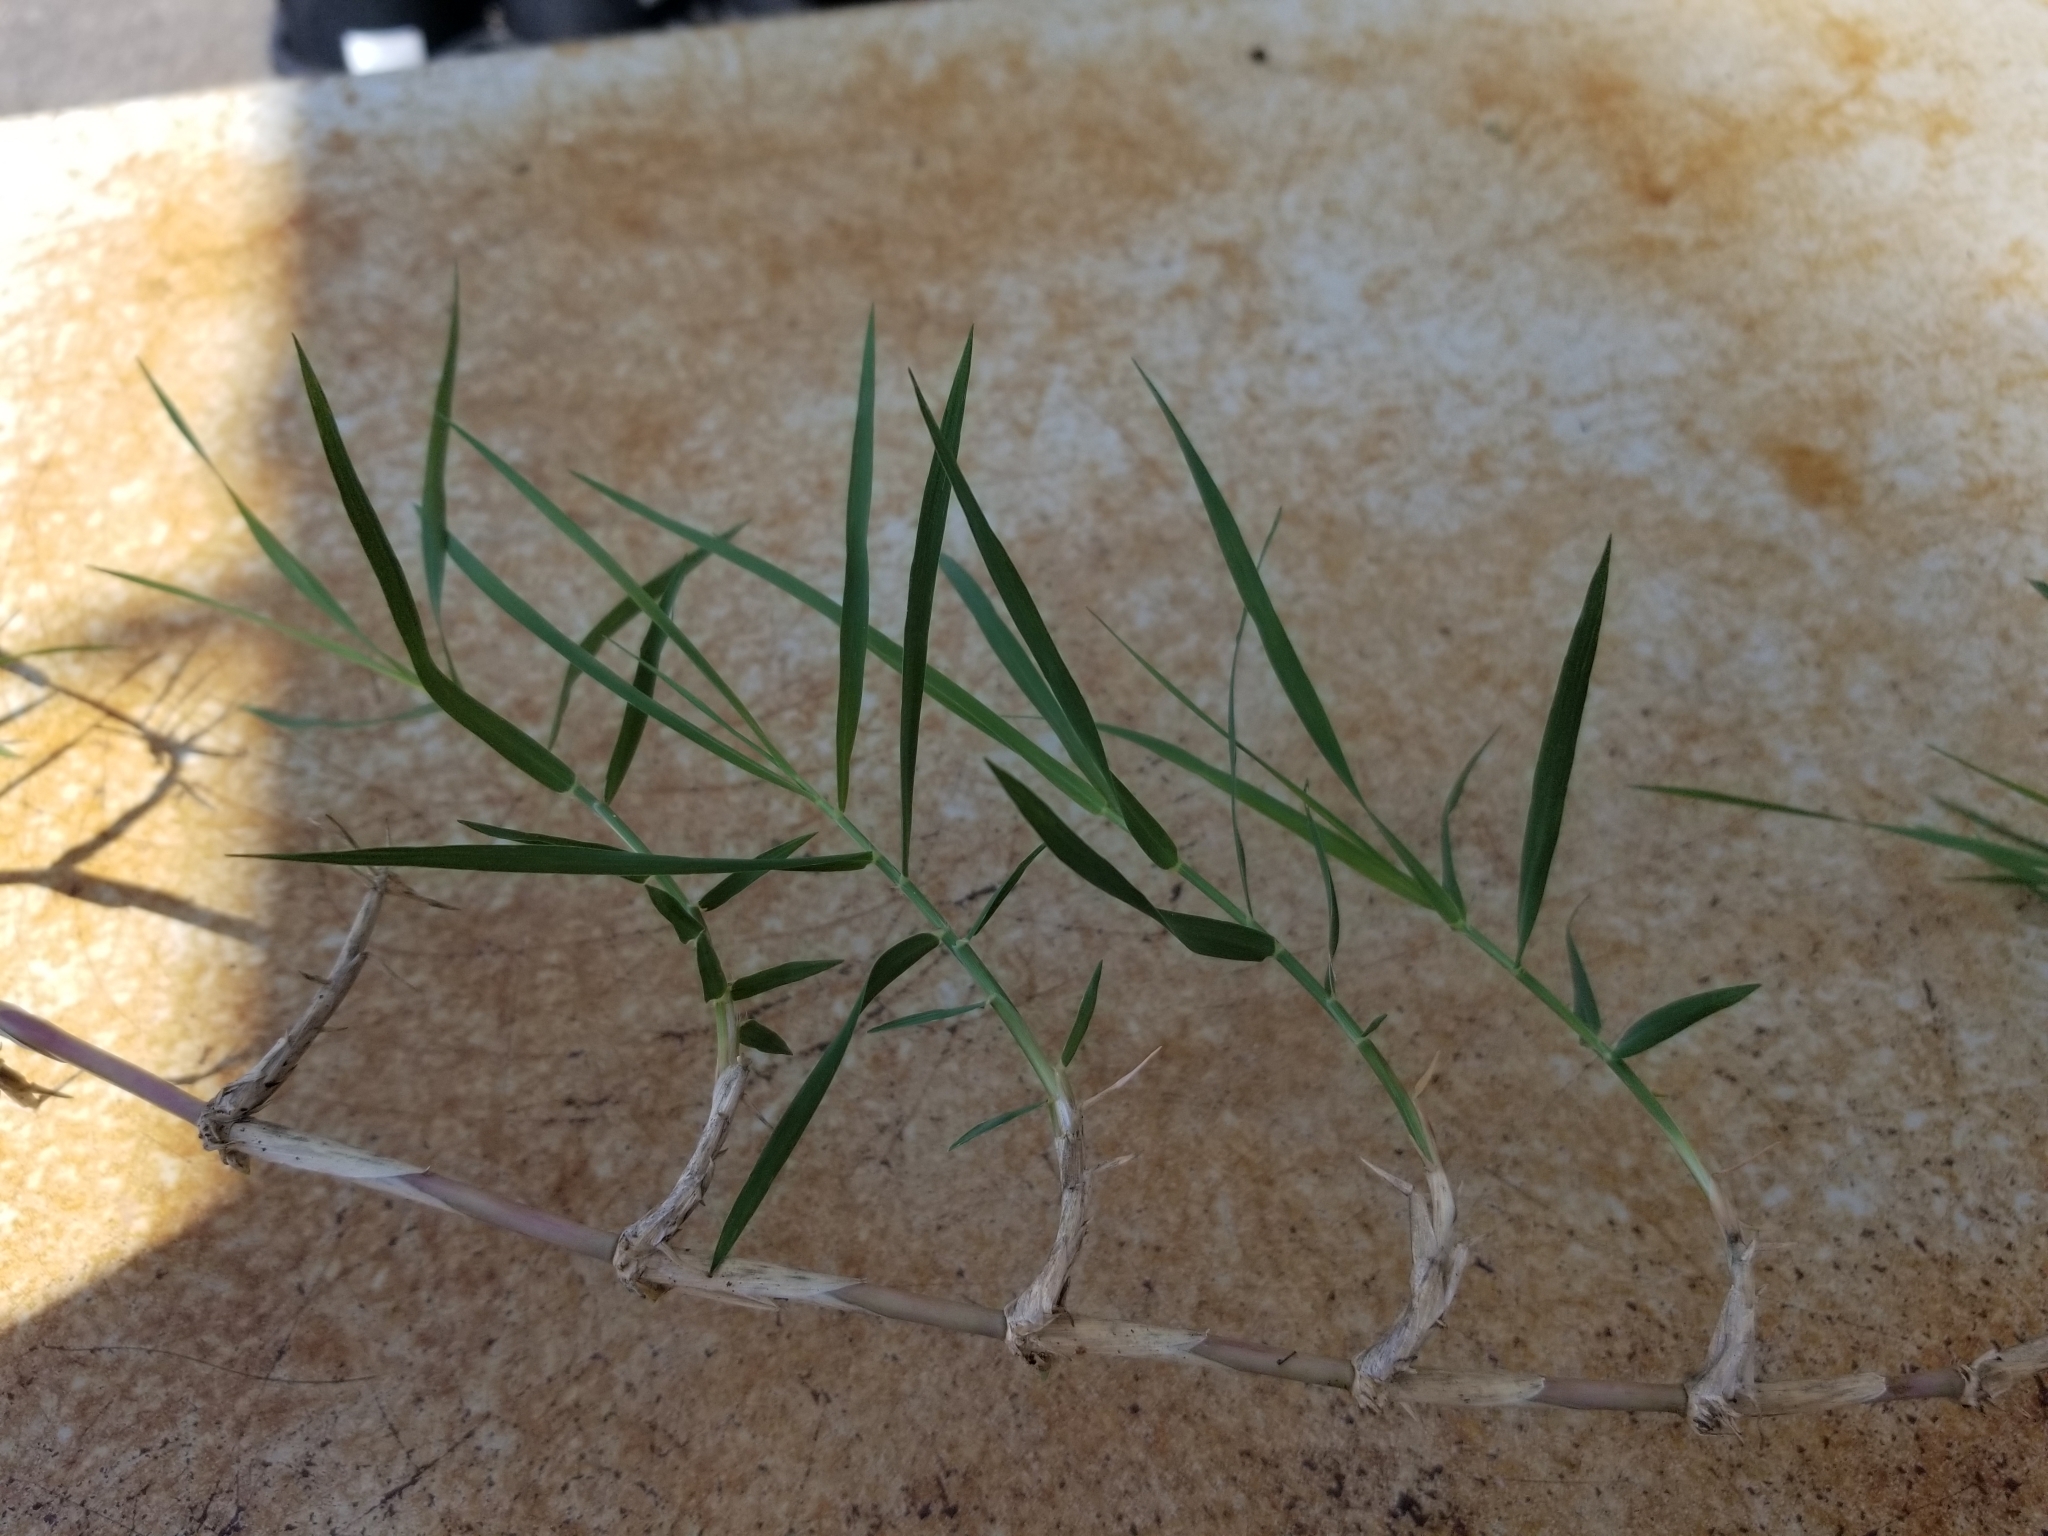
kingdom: Plantae
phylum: Tracheophyta
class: Liliopsida
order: Poales
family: Poaceae
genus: Cynodon
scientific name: Cynodon dactylon
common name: Bermuda grass
